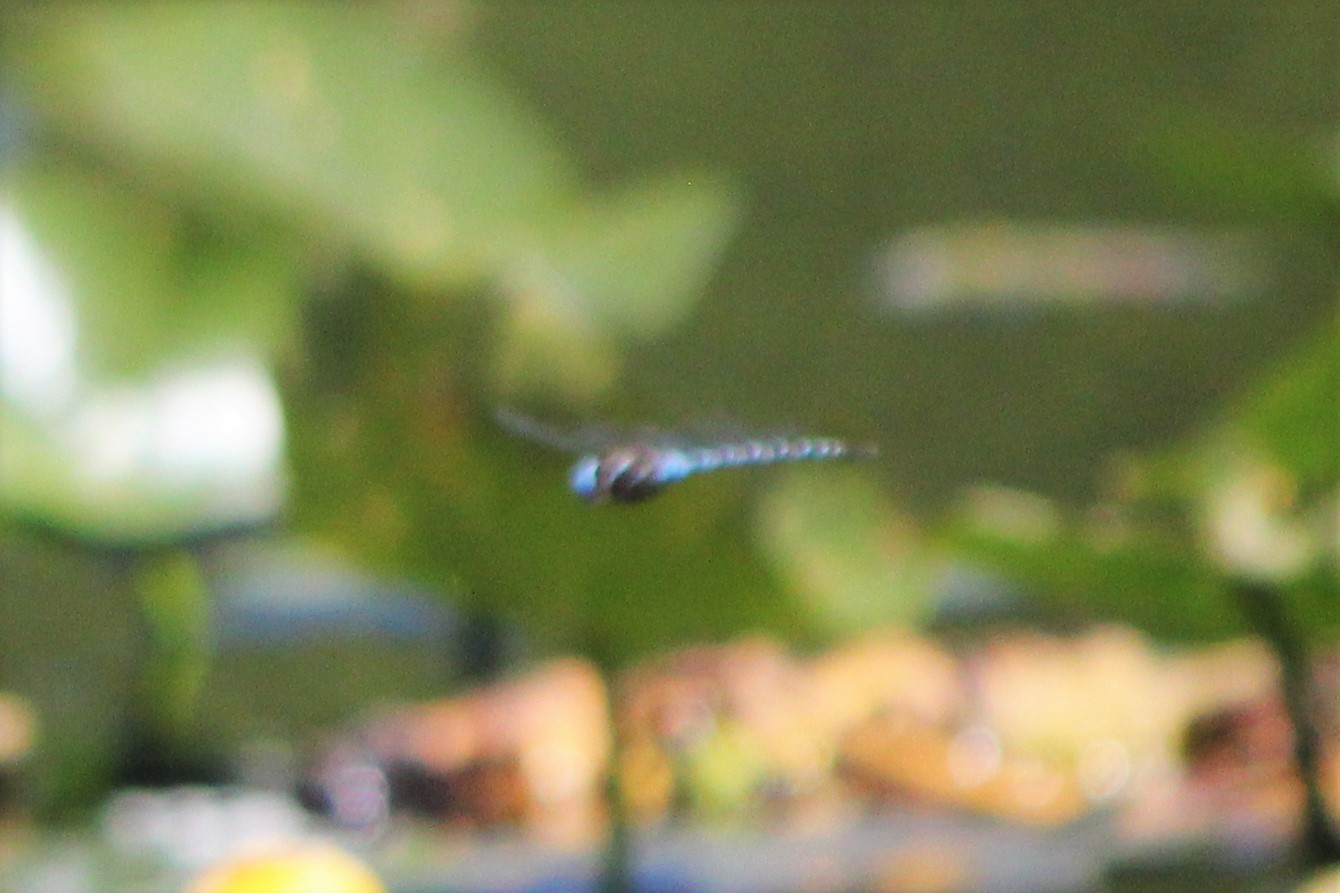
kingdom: Animalia
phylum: Arthropoda
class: Insecta
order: Odonata
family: Aeshnidae
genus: Rhionaeschna
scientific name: Rhionaeschna mutata
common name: Spatterdock darner
